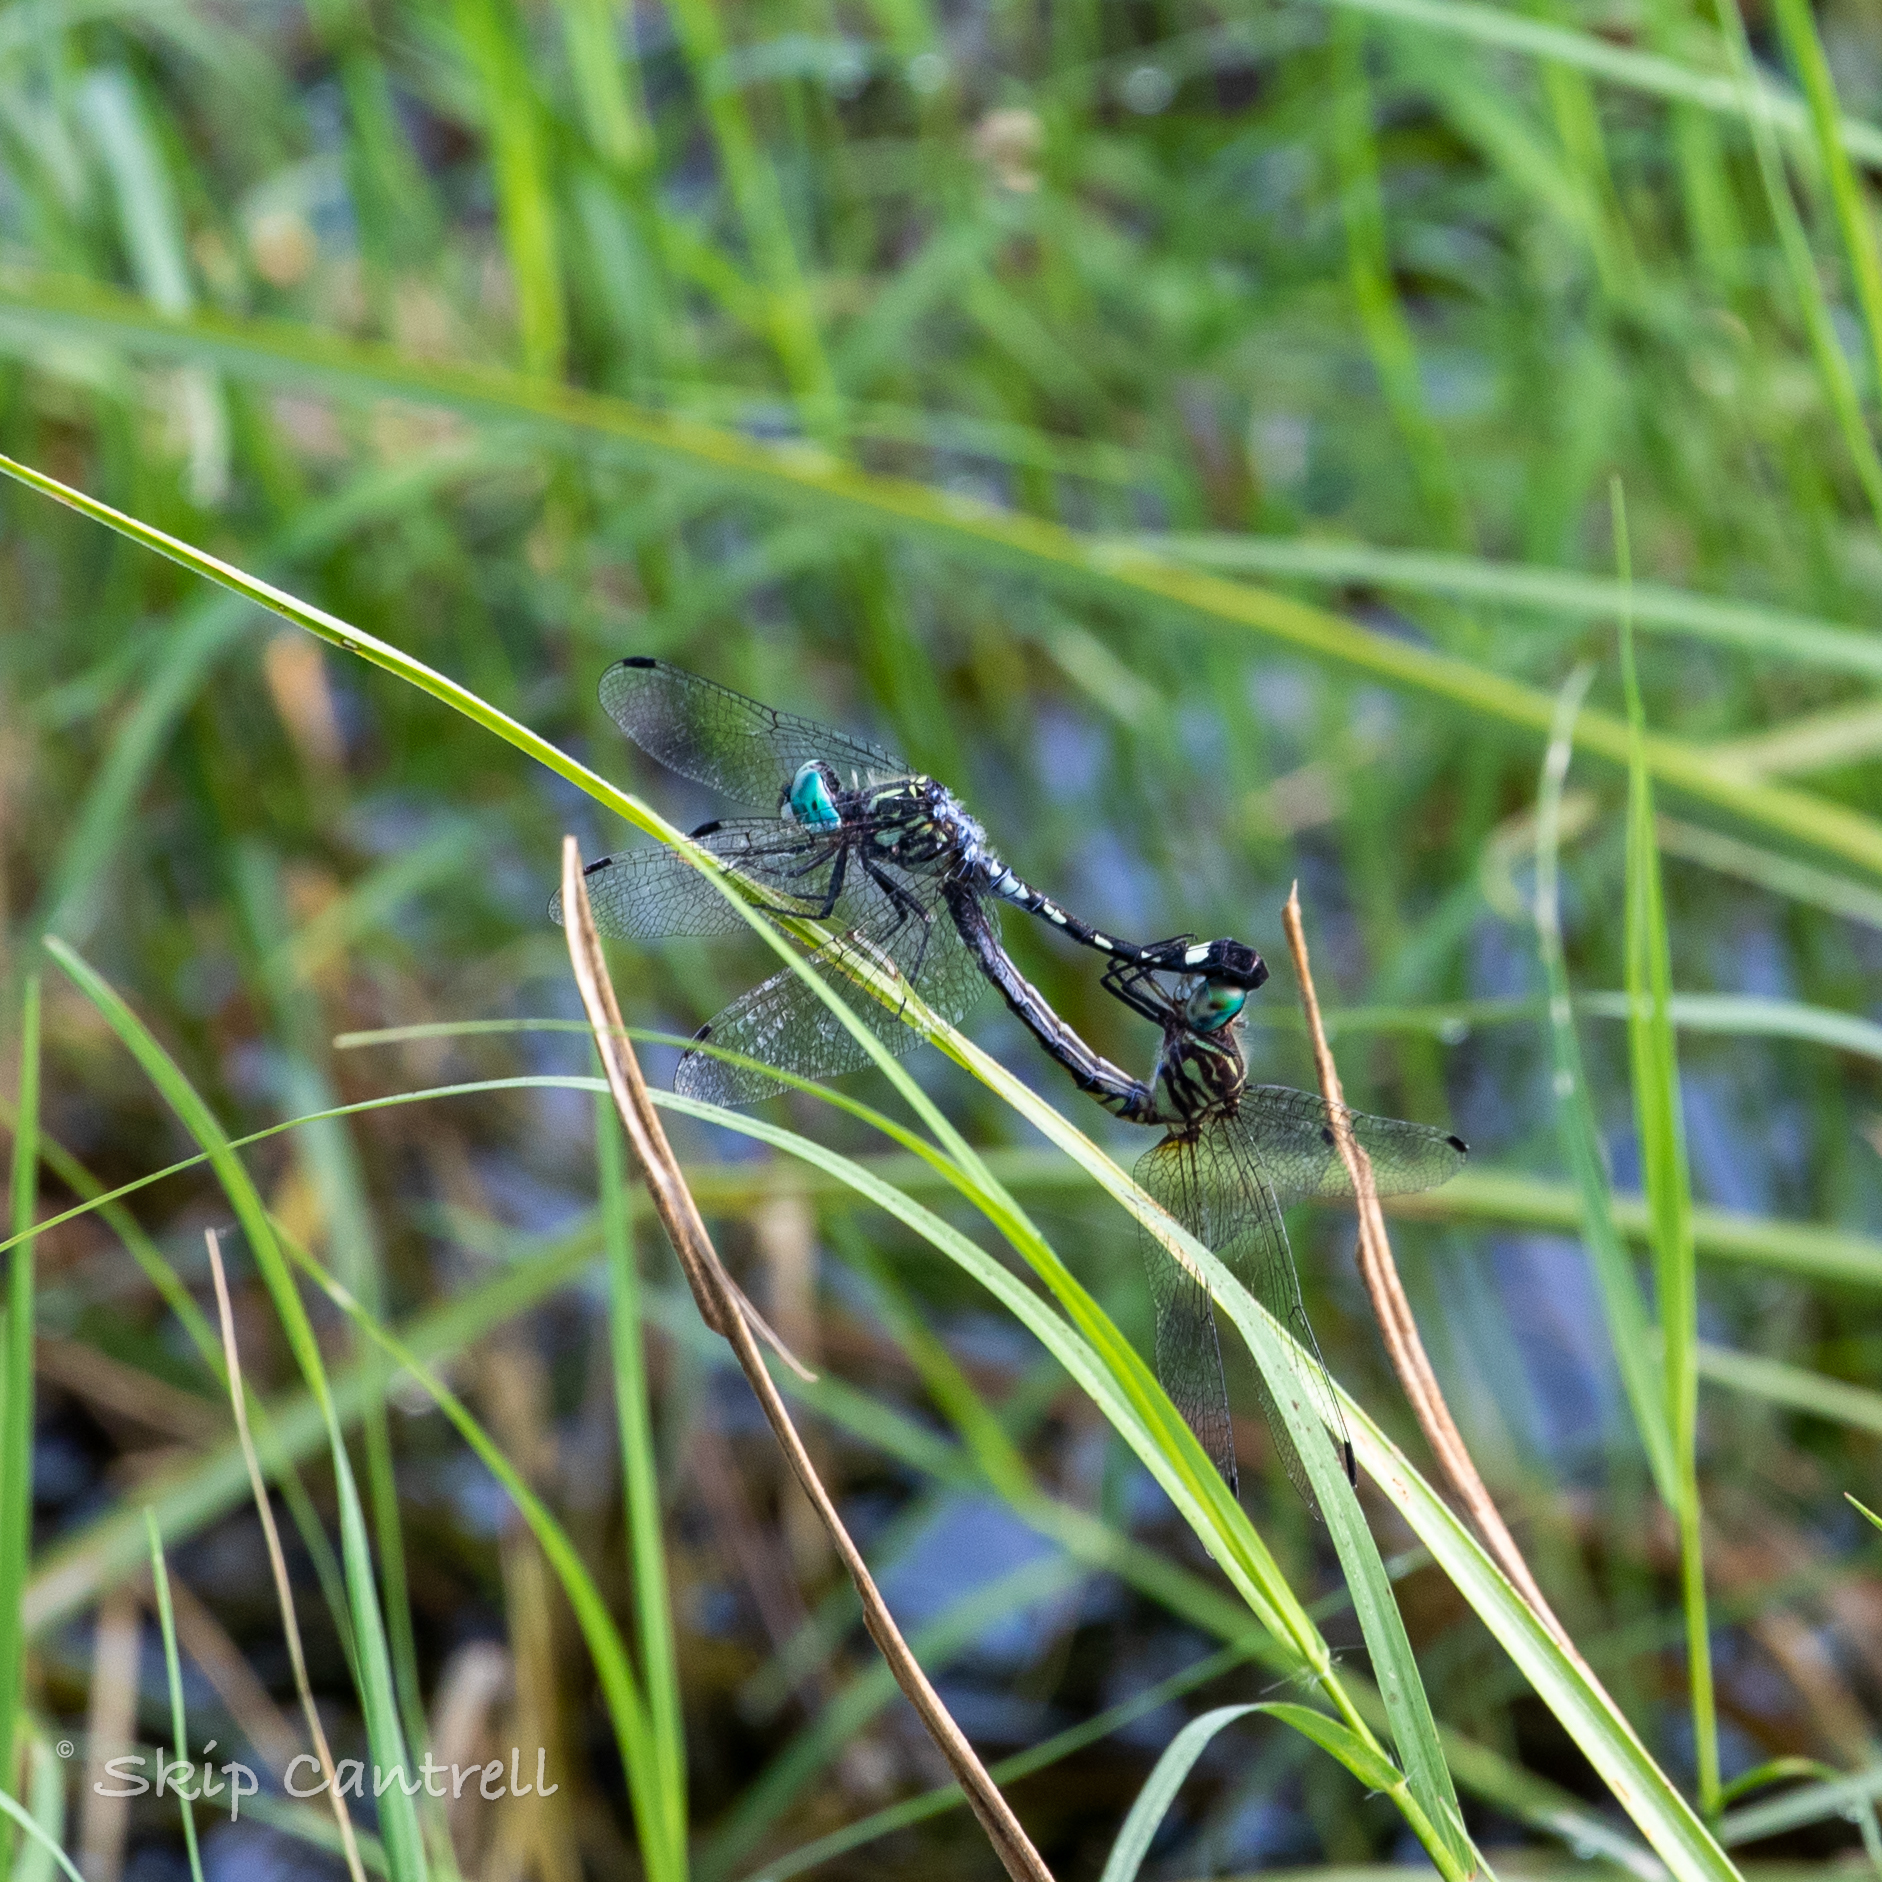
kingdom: Animalia
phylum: Arthropoda
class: Insecta
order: Odonata
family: Libellulidae
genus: Micrathyria
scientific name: Micrathyria hagenii
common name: Thornbush dasher
